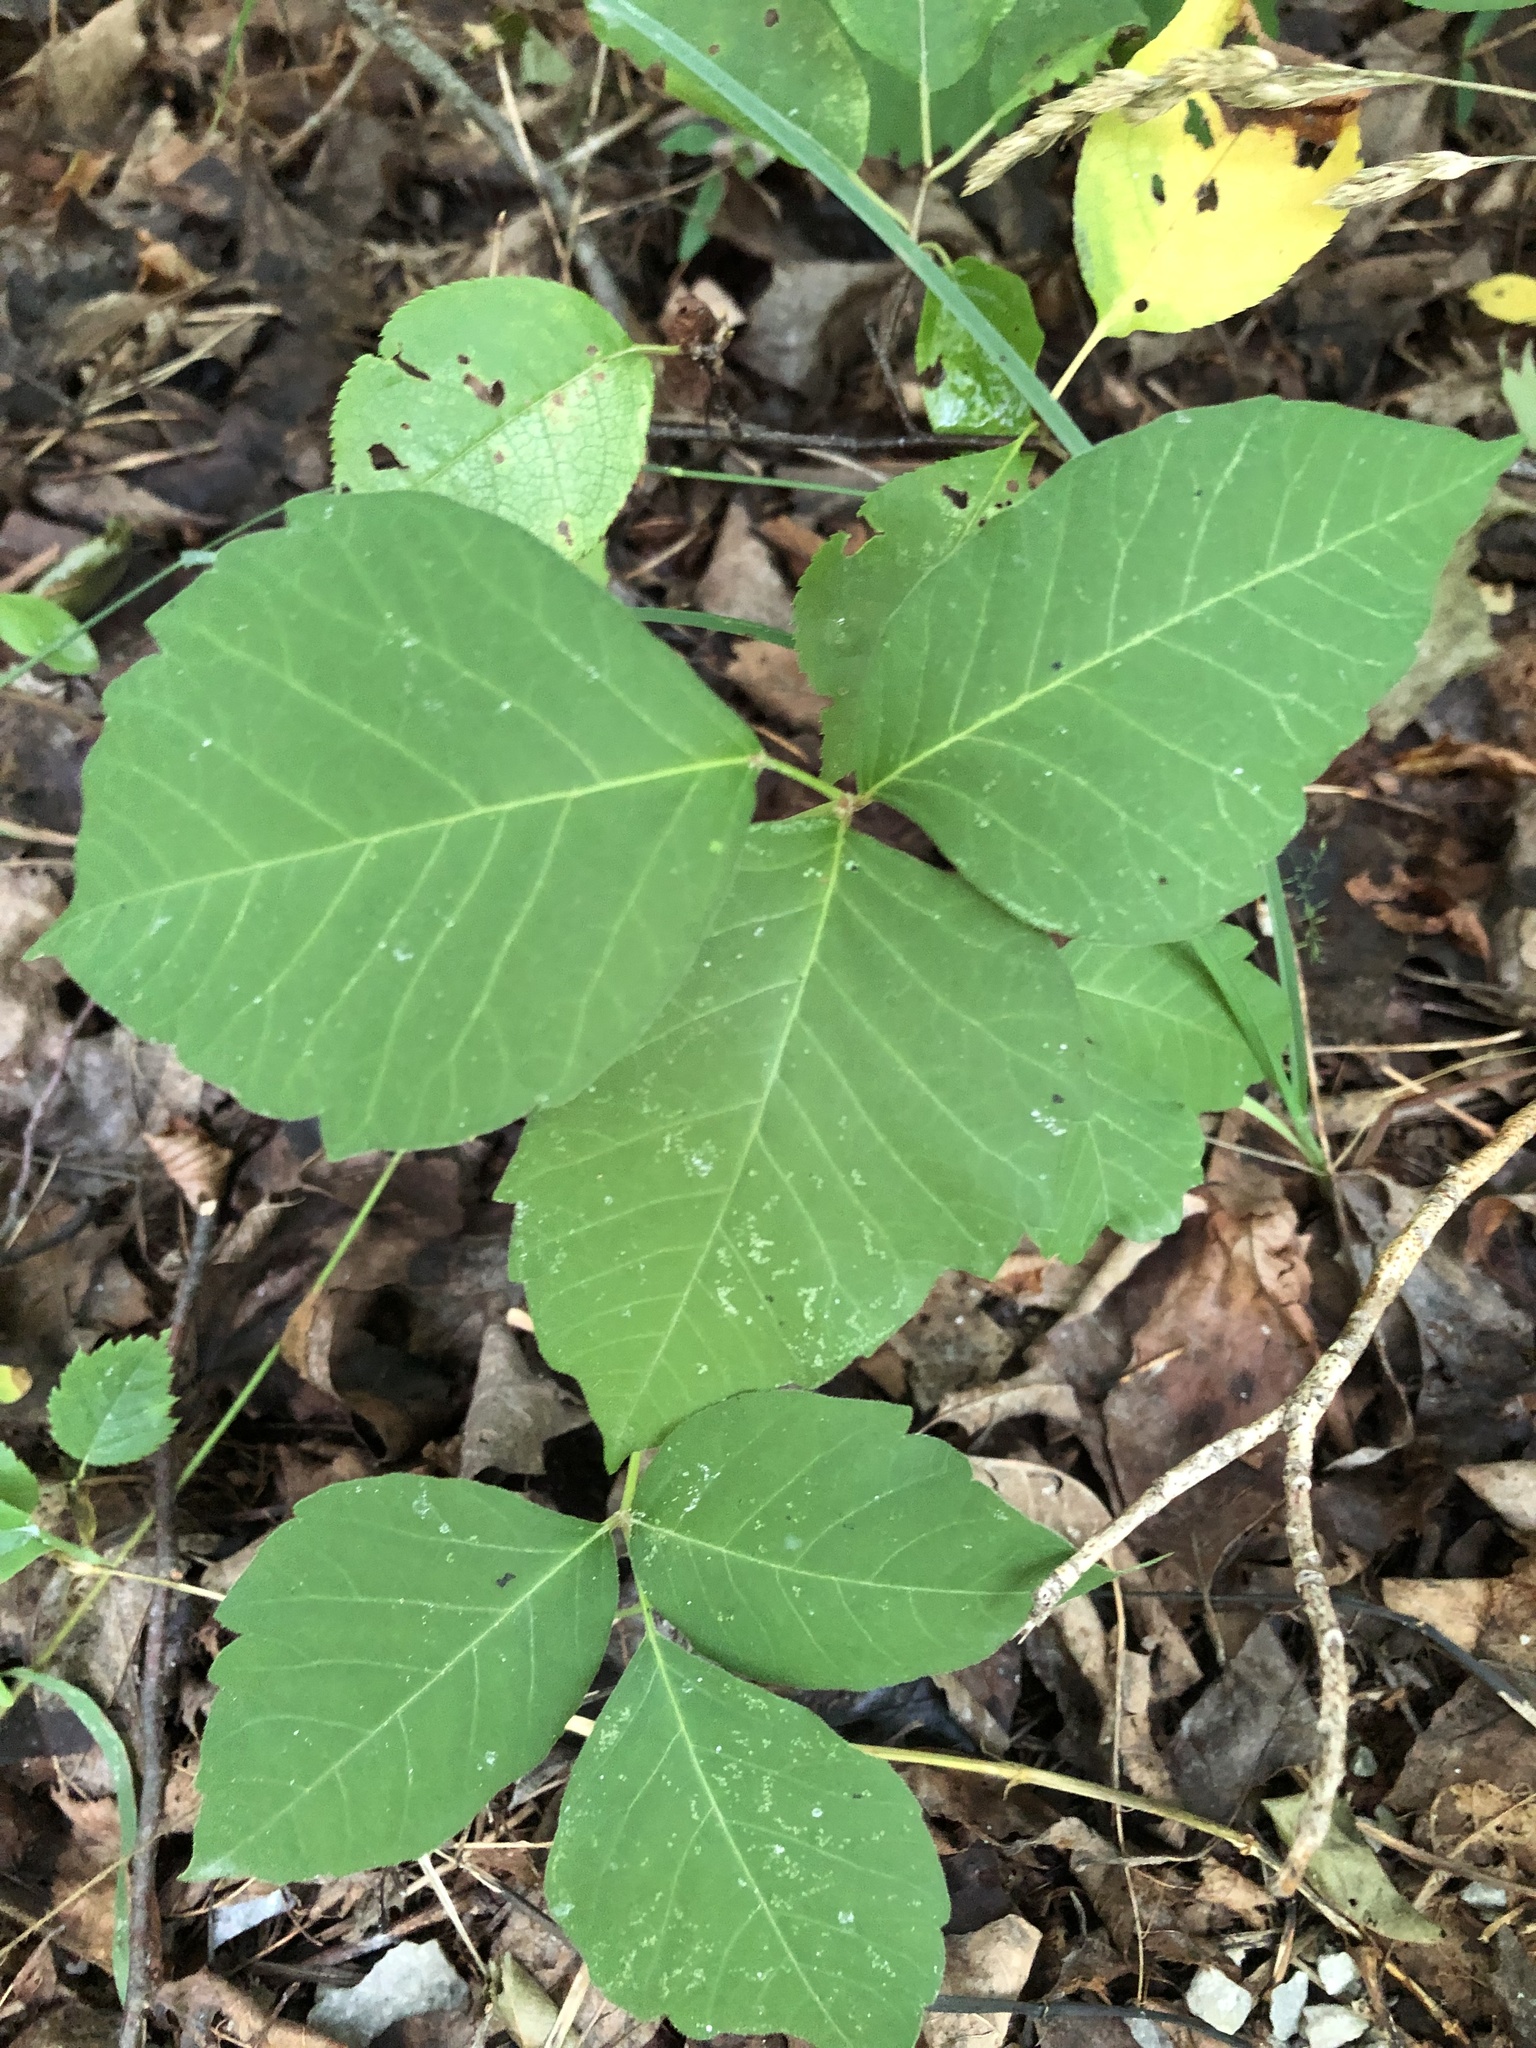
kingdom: Plantae
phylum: Tracheophyta
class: Magnoliopsida
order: Sapindales
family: Anacardiaceae
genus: Toxicodendron
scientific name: Toxicodendron rydbergii
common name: Rydberg's poison-ivy
